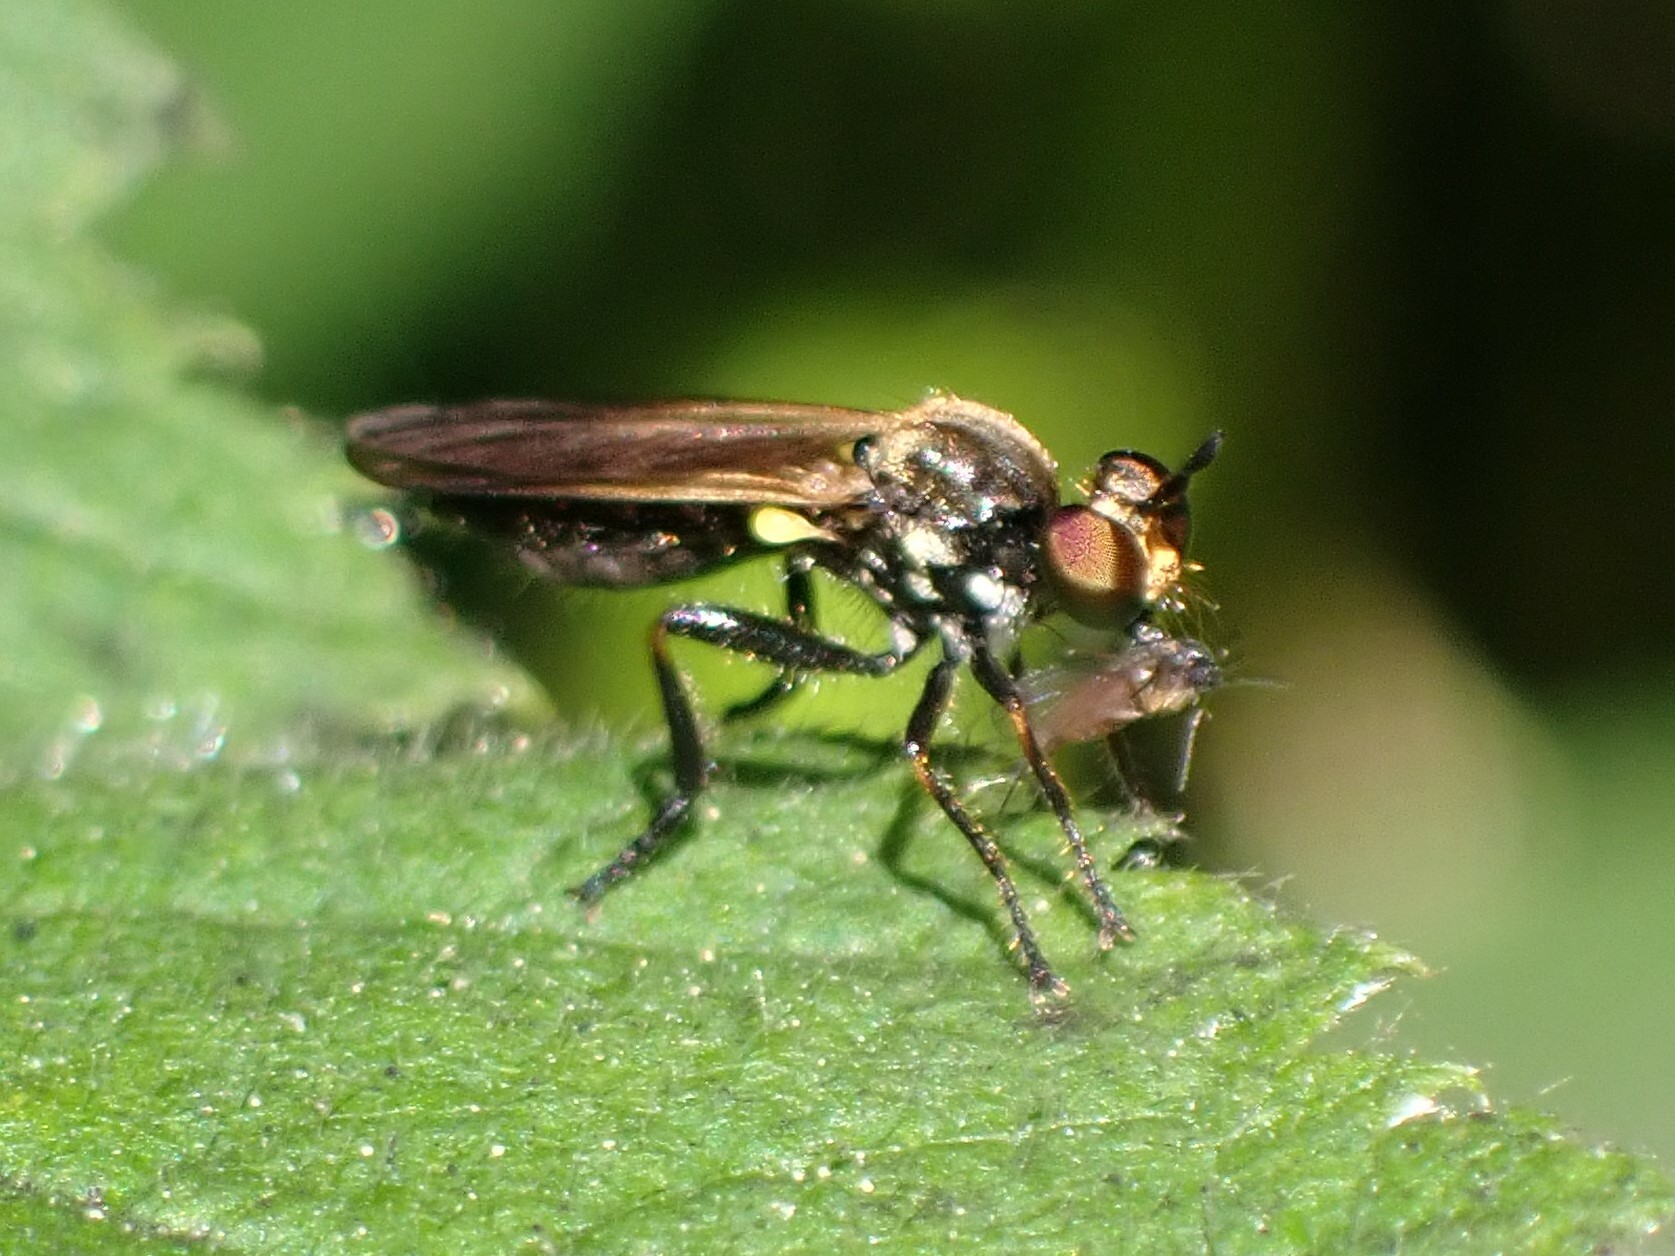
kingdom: Animalia
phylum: Arthropoda
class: Insecta
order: Diptera
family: Asilidae
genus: Eudioctria
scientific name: Eudioctria sackeni
